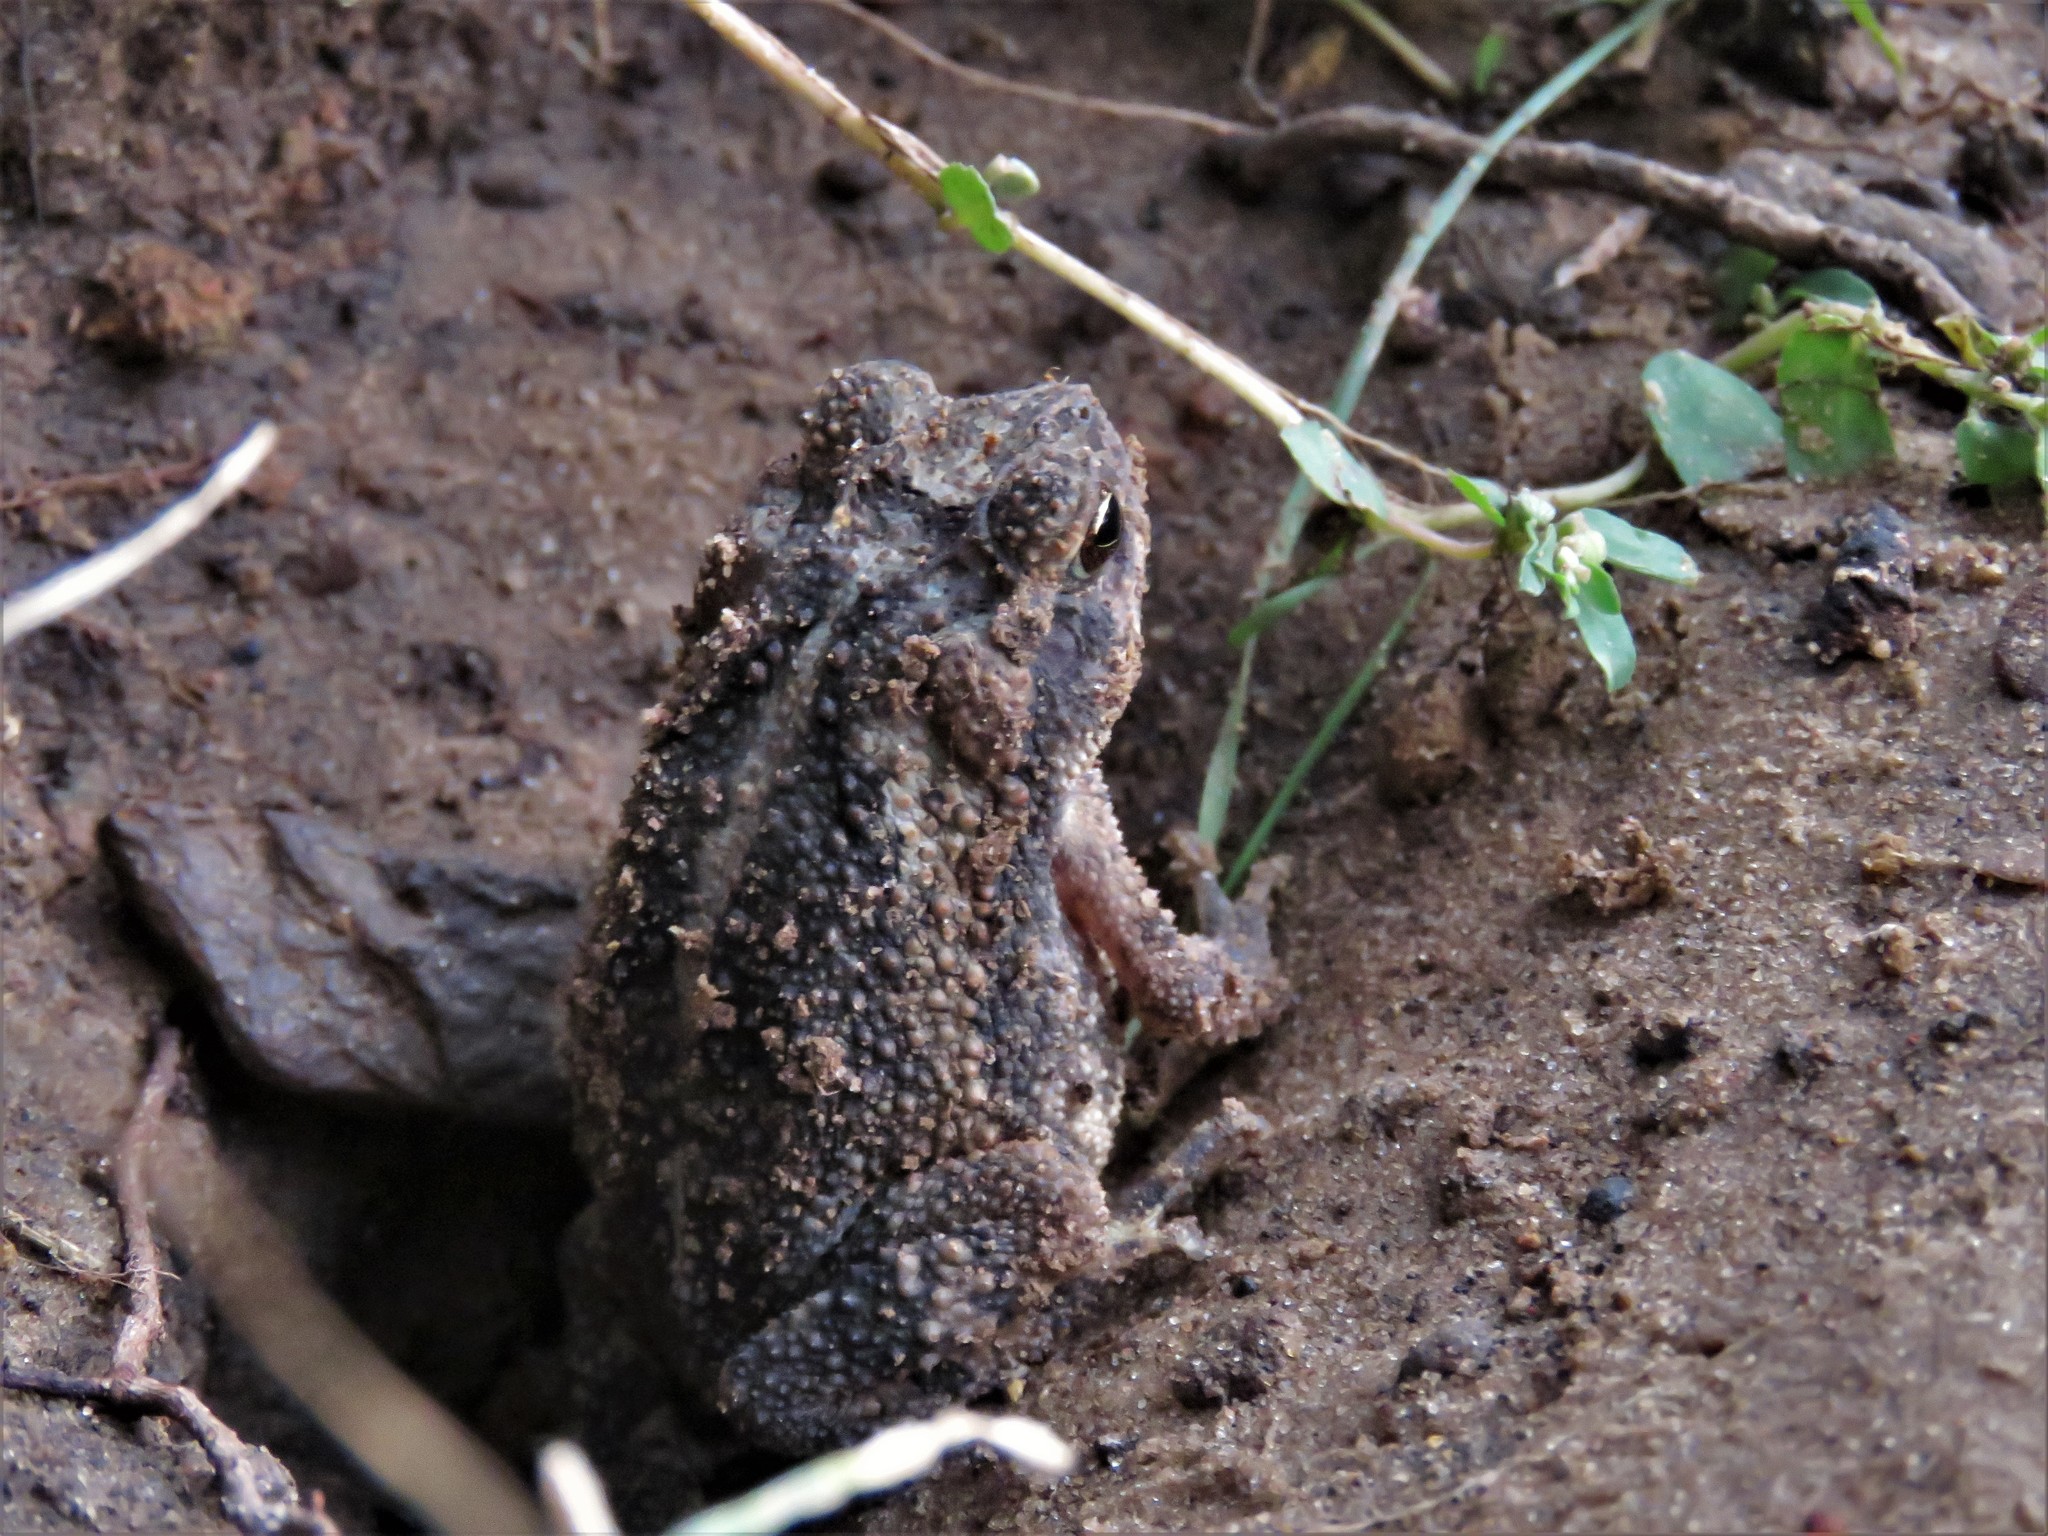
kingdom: Animalia
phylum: Chordata
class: Amphibia
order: Anura
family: Bufonidae
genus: Incilius
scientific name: Incilius nebulifer
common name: Gulf coast toad
